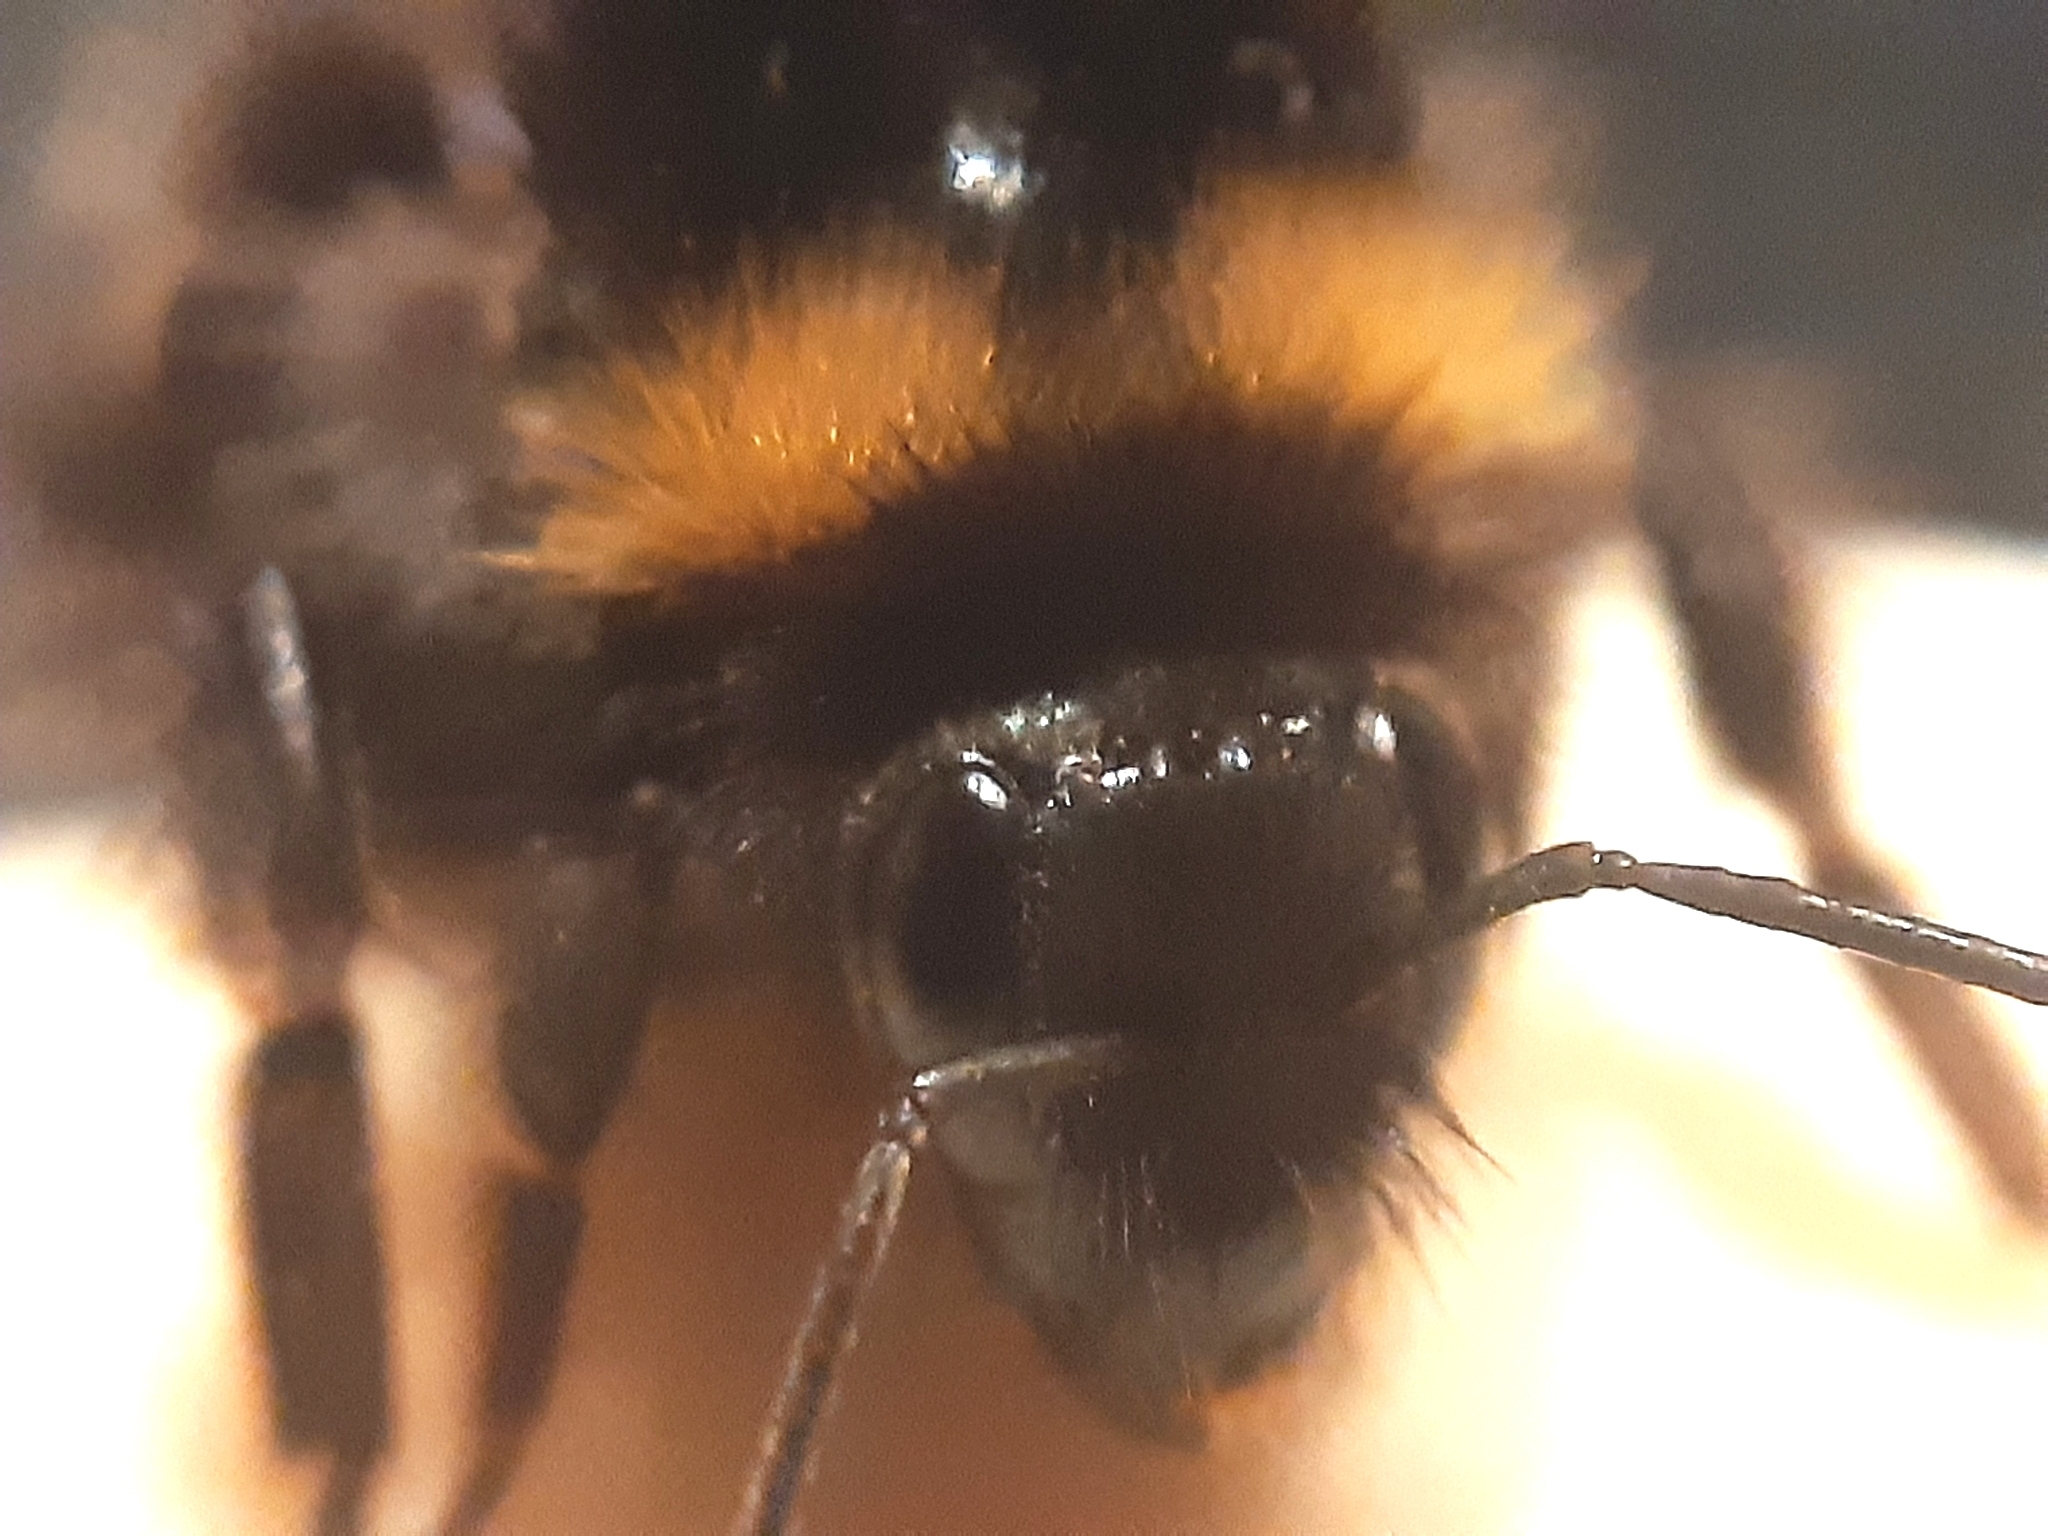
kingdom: Animalia
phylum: Arthropoda
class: Insecta
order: Hymenoptera
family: Apidae
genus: Bombus
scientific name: Bombus pratorum
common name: Early humble-bee
